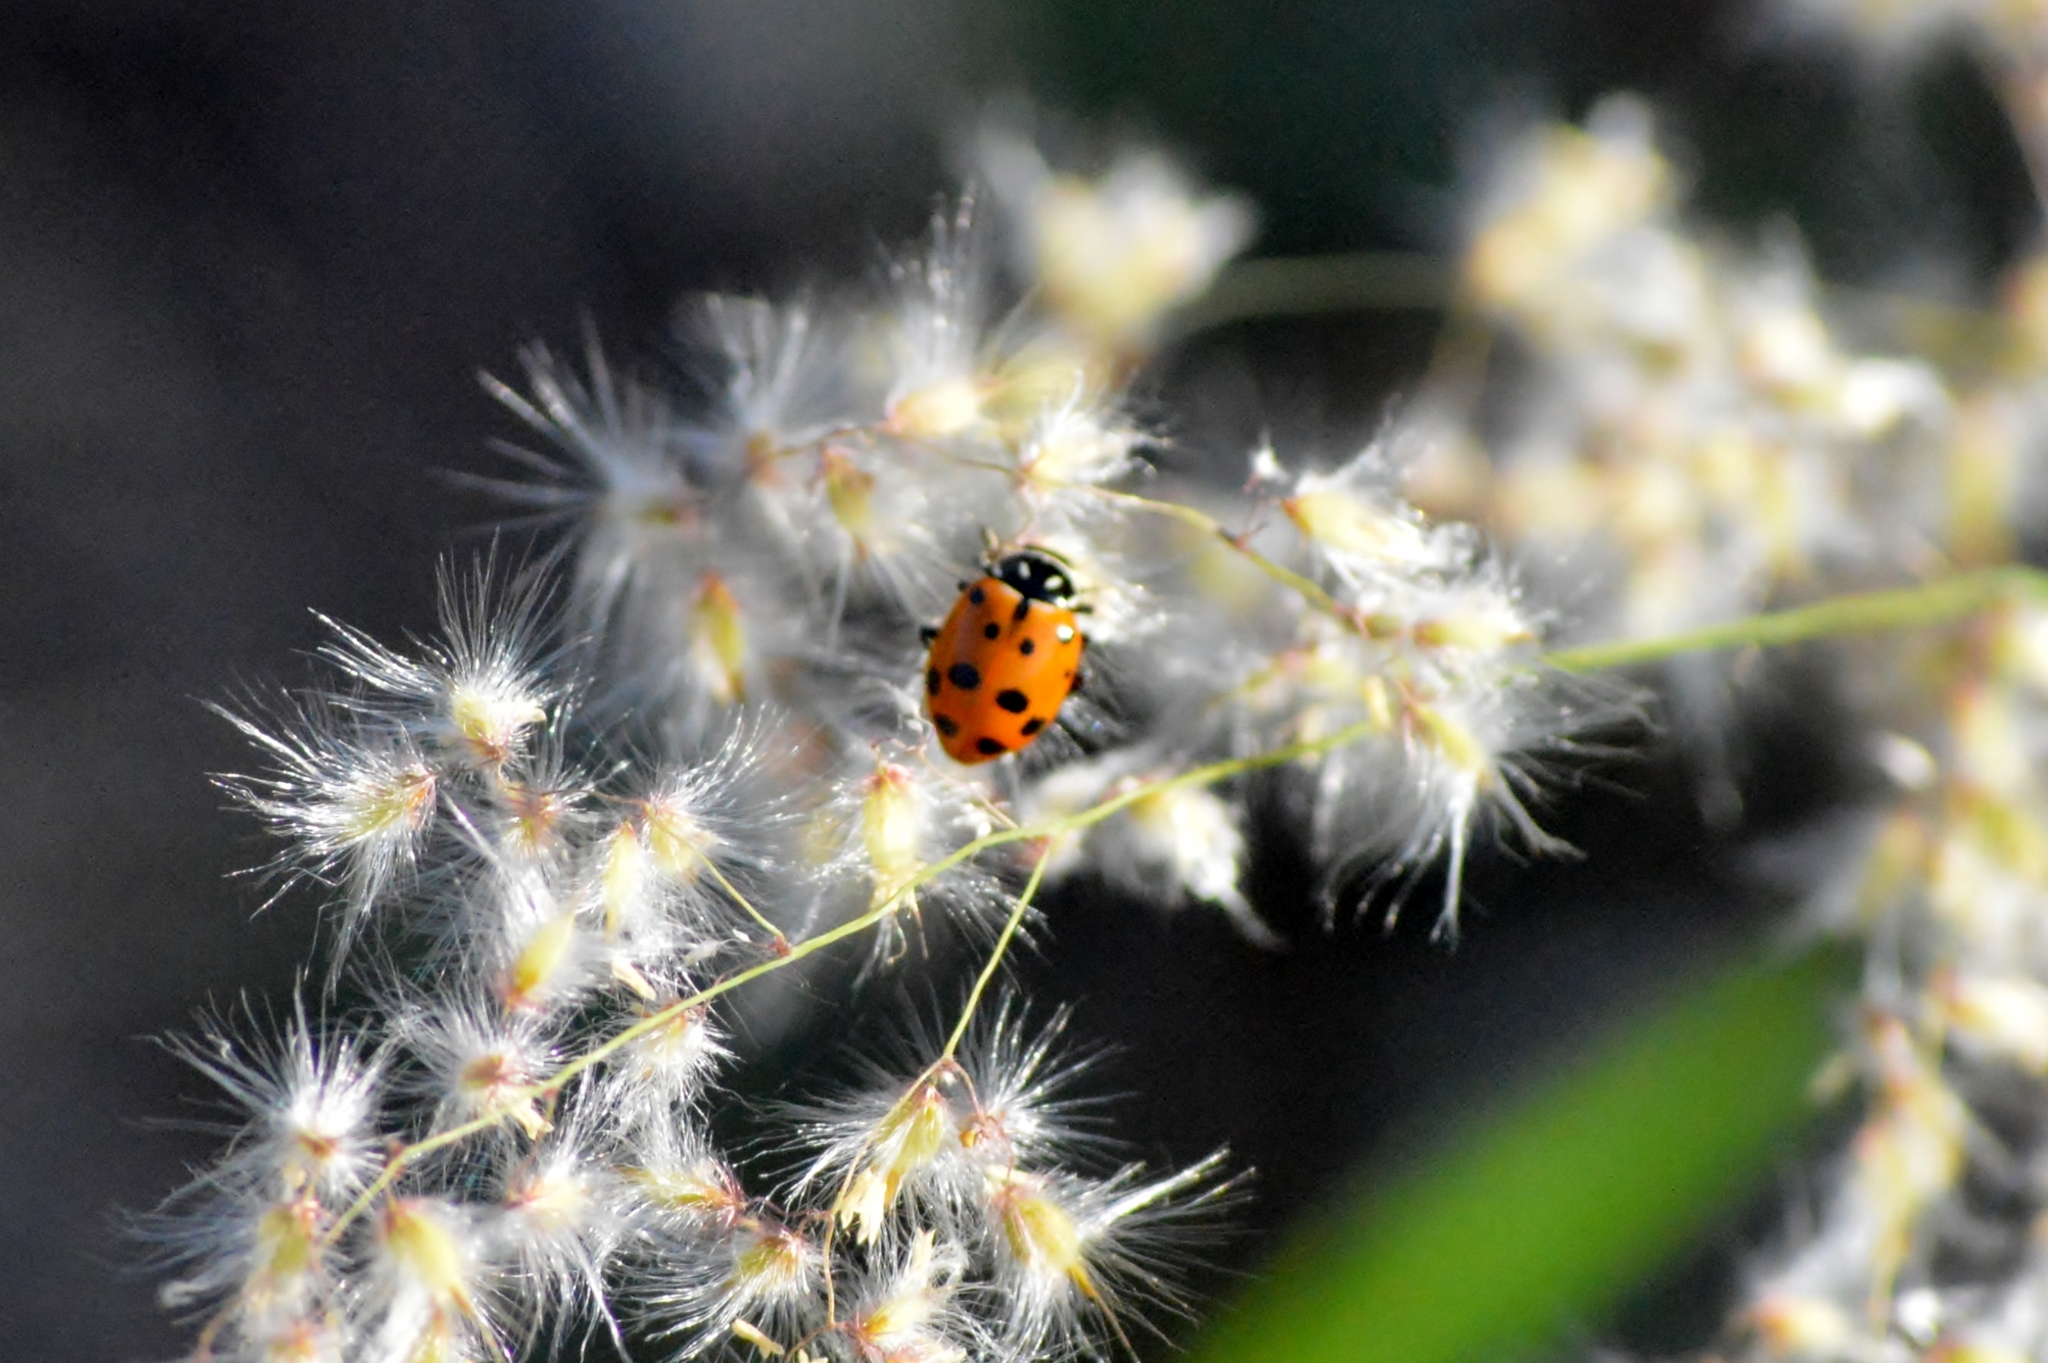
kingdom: Animalia
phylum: Arthropoda
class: Insecta
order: Coleoptera
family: Coccinellidae
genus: Hippodamia
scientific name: Hippodamia convergens
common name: Convergent lady beetle
